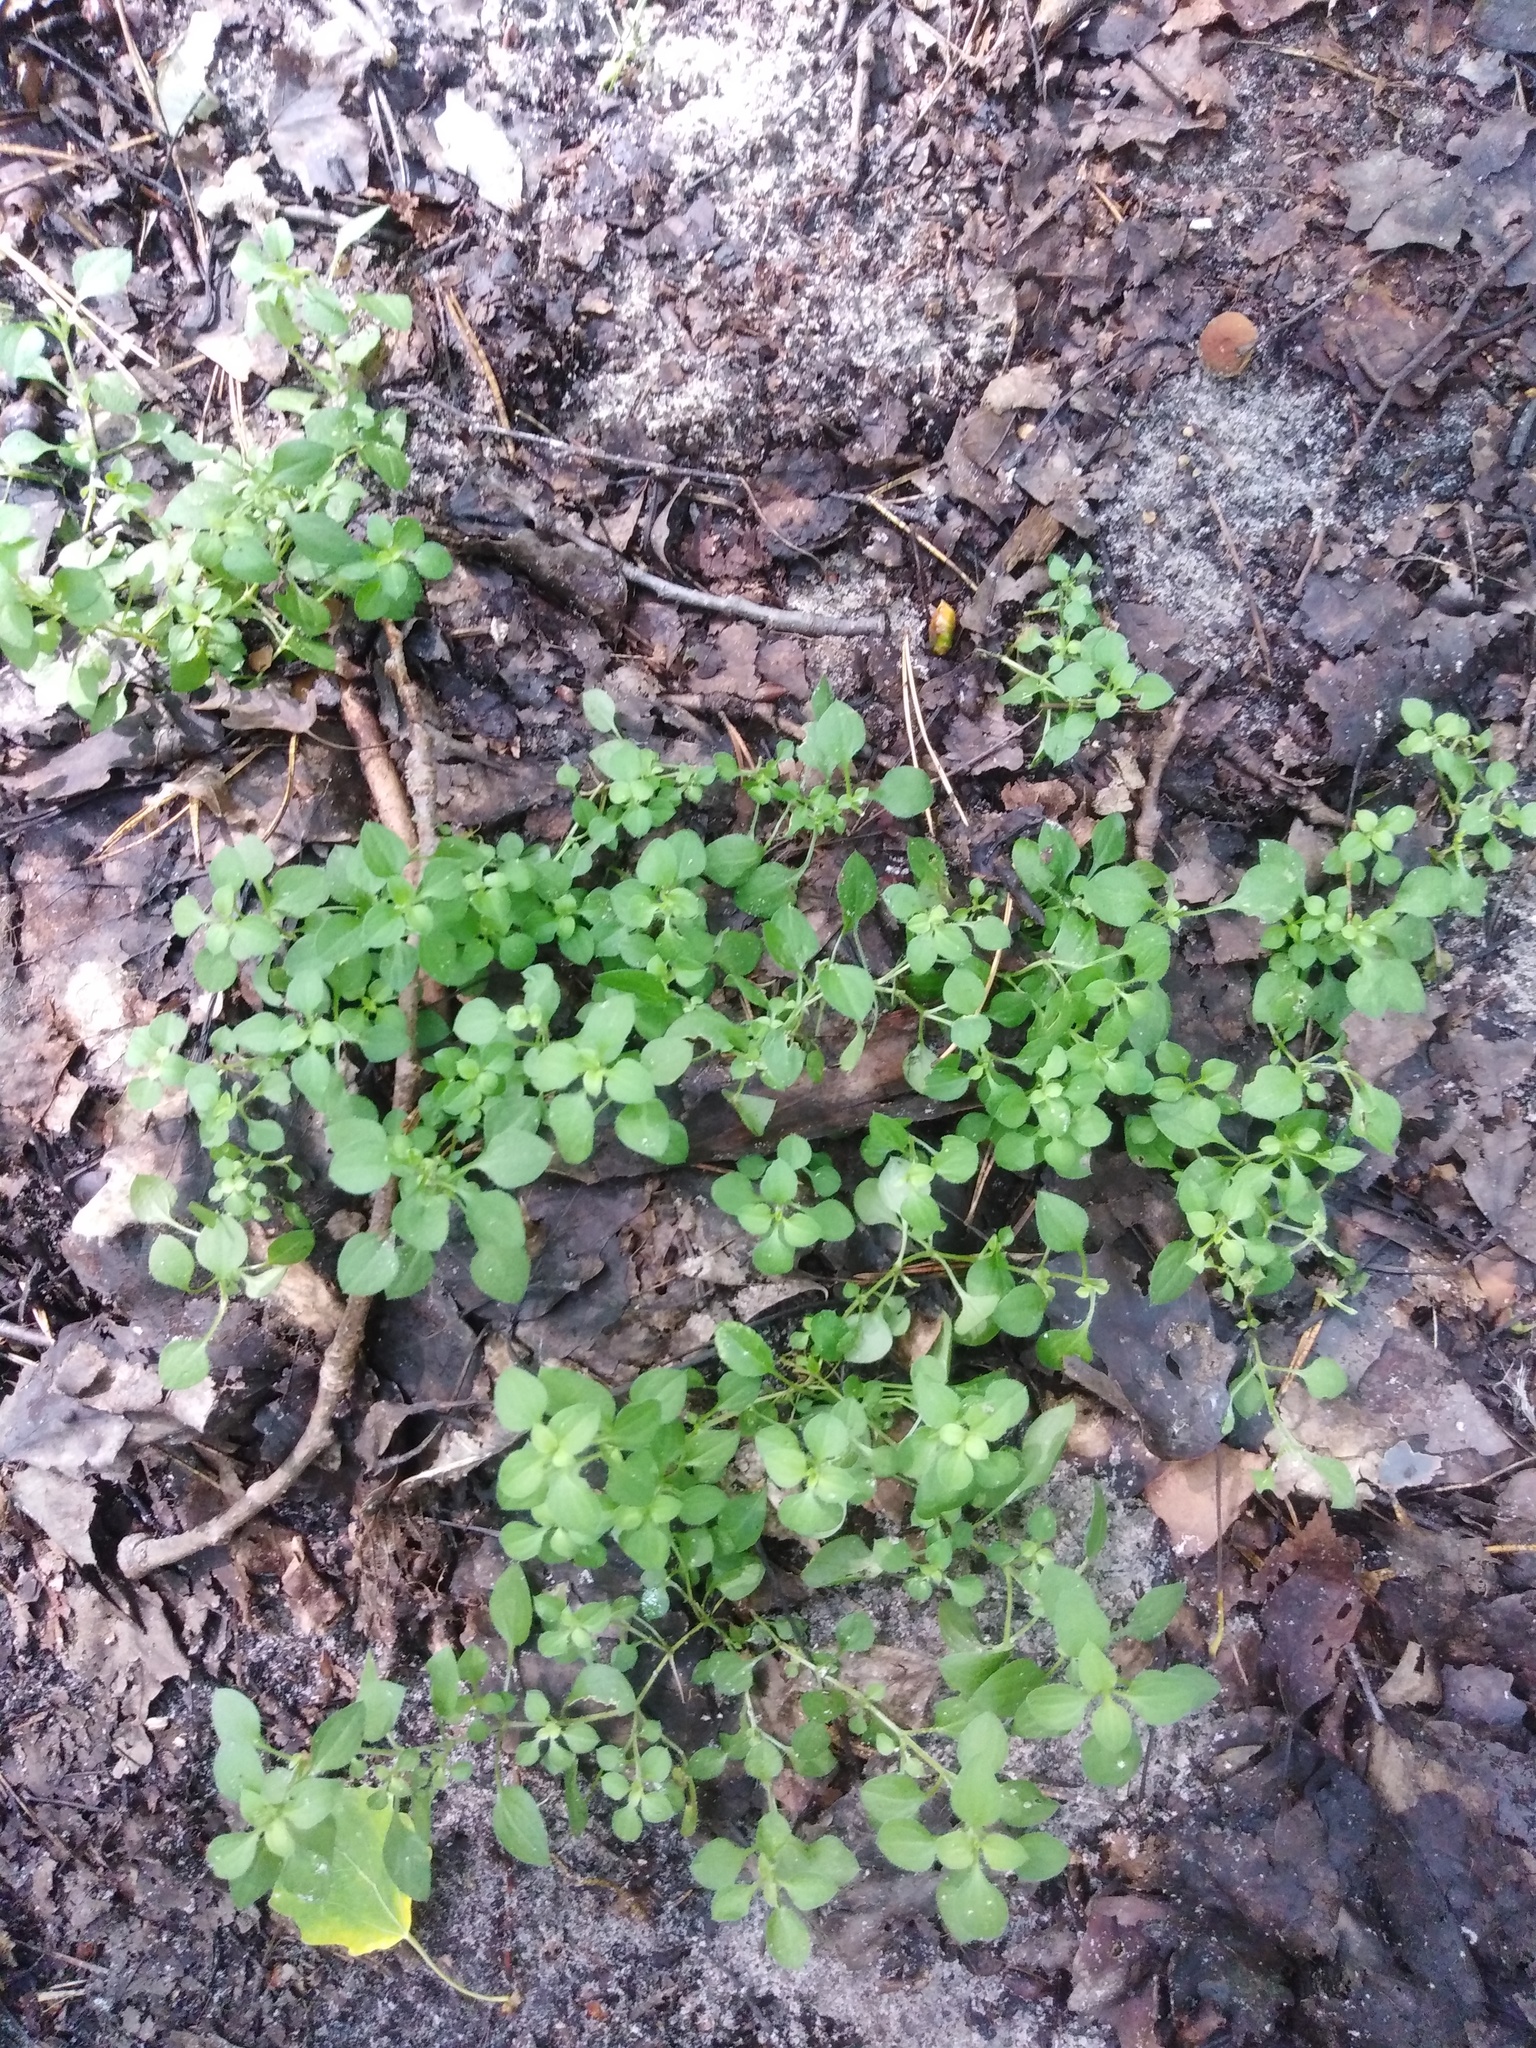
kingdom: Plantae
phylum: Tracheophyta
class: Magnoliopsida
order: Caryophyllales
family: Caryophyllaceae
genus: Moehringia
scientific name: Moehringia trinervia
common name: Three-nerved sandwort
